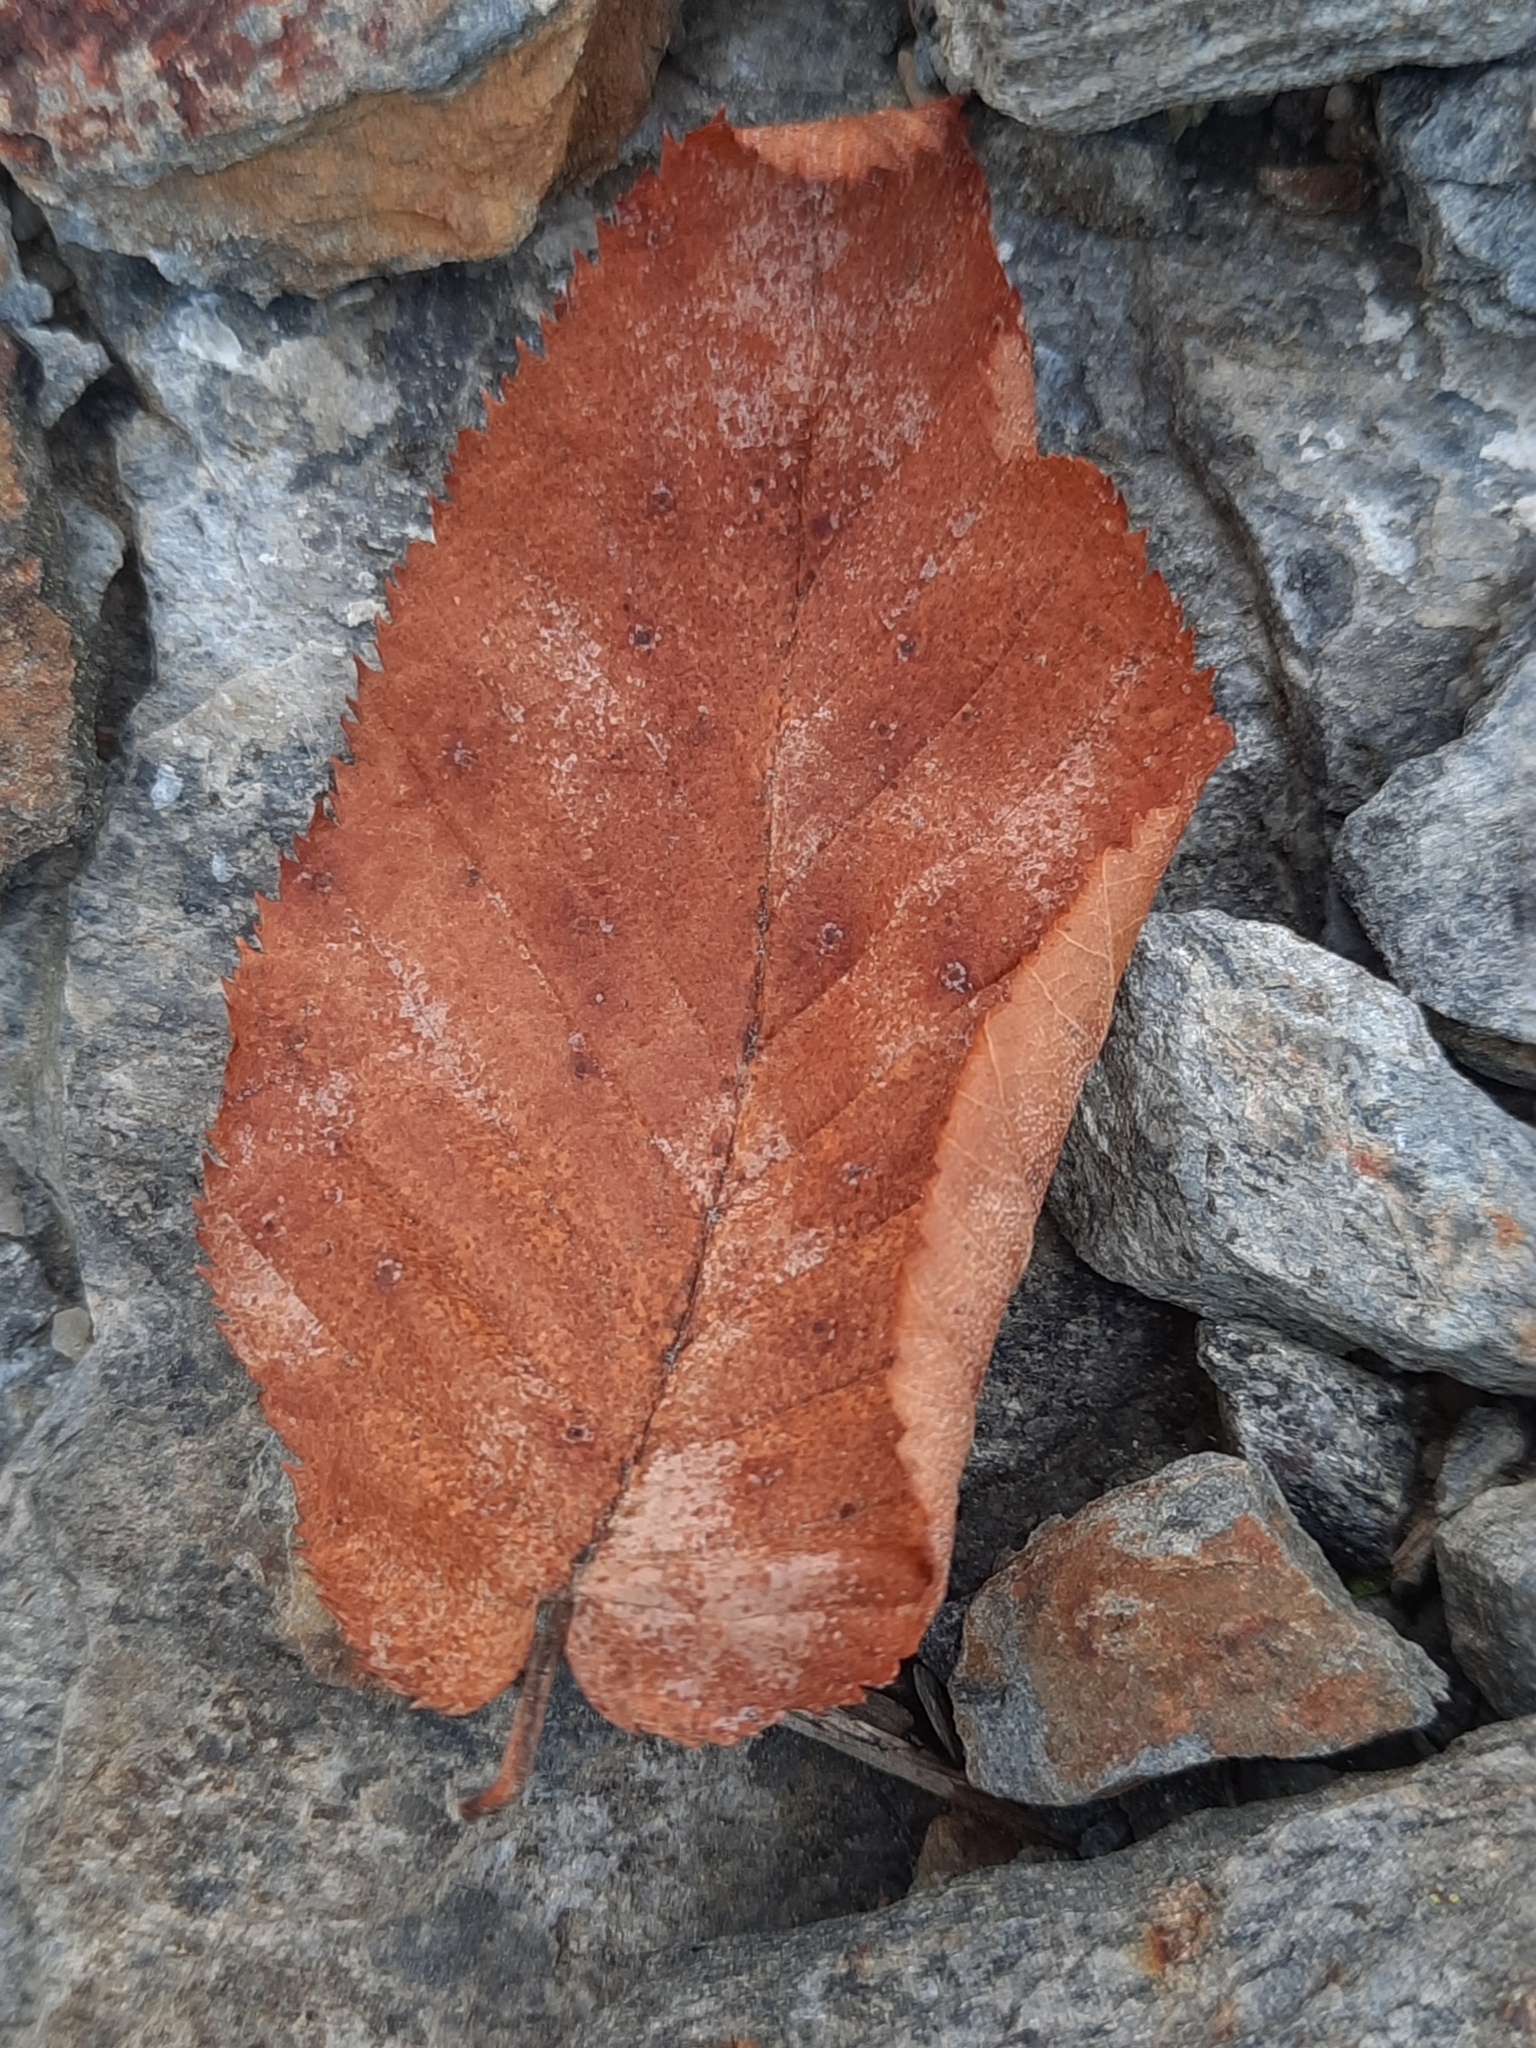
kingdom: Plantae
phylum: Tracheophyta
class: Magnoliopsida
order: Fagales
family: Betulaceae
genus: Betula
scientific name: Betula alleghaniensis
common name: Yellow birch
